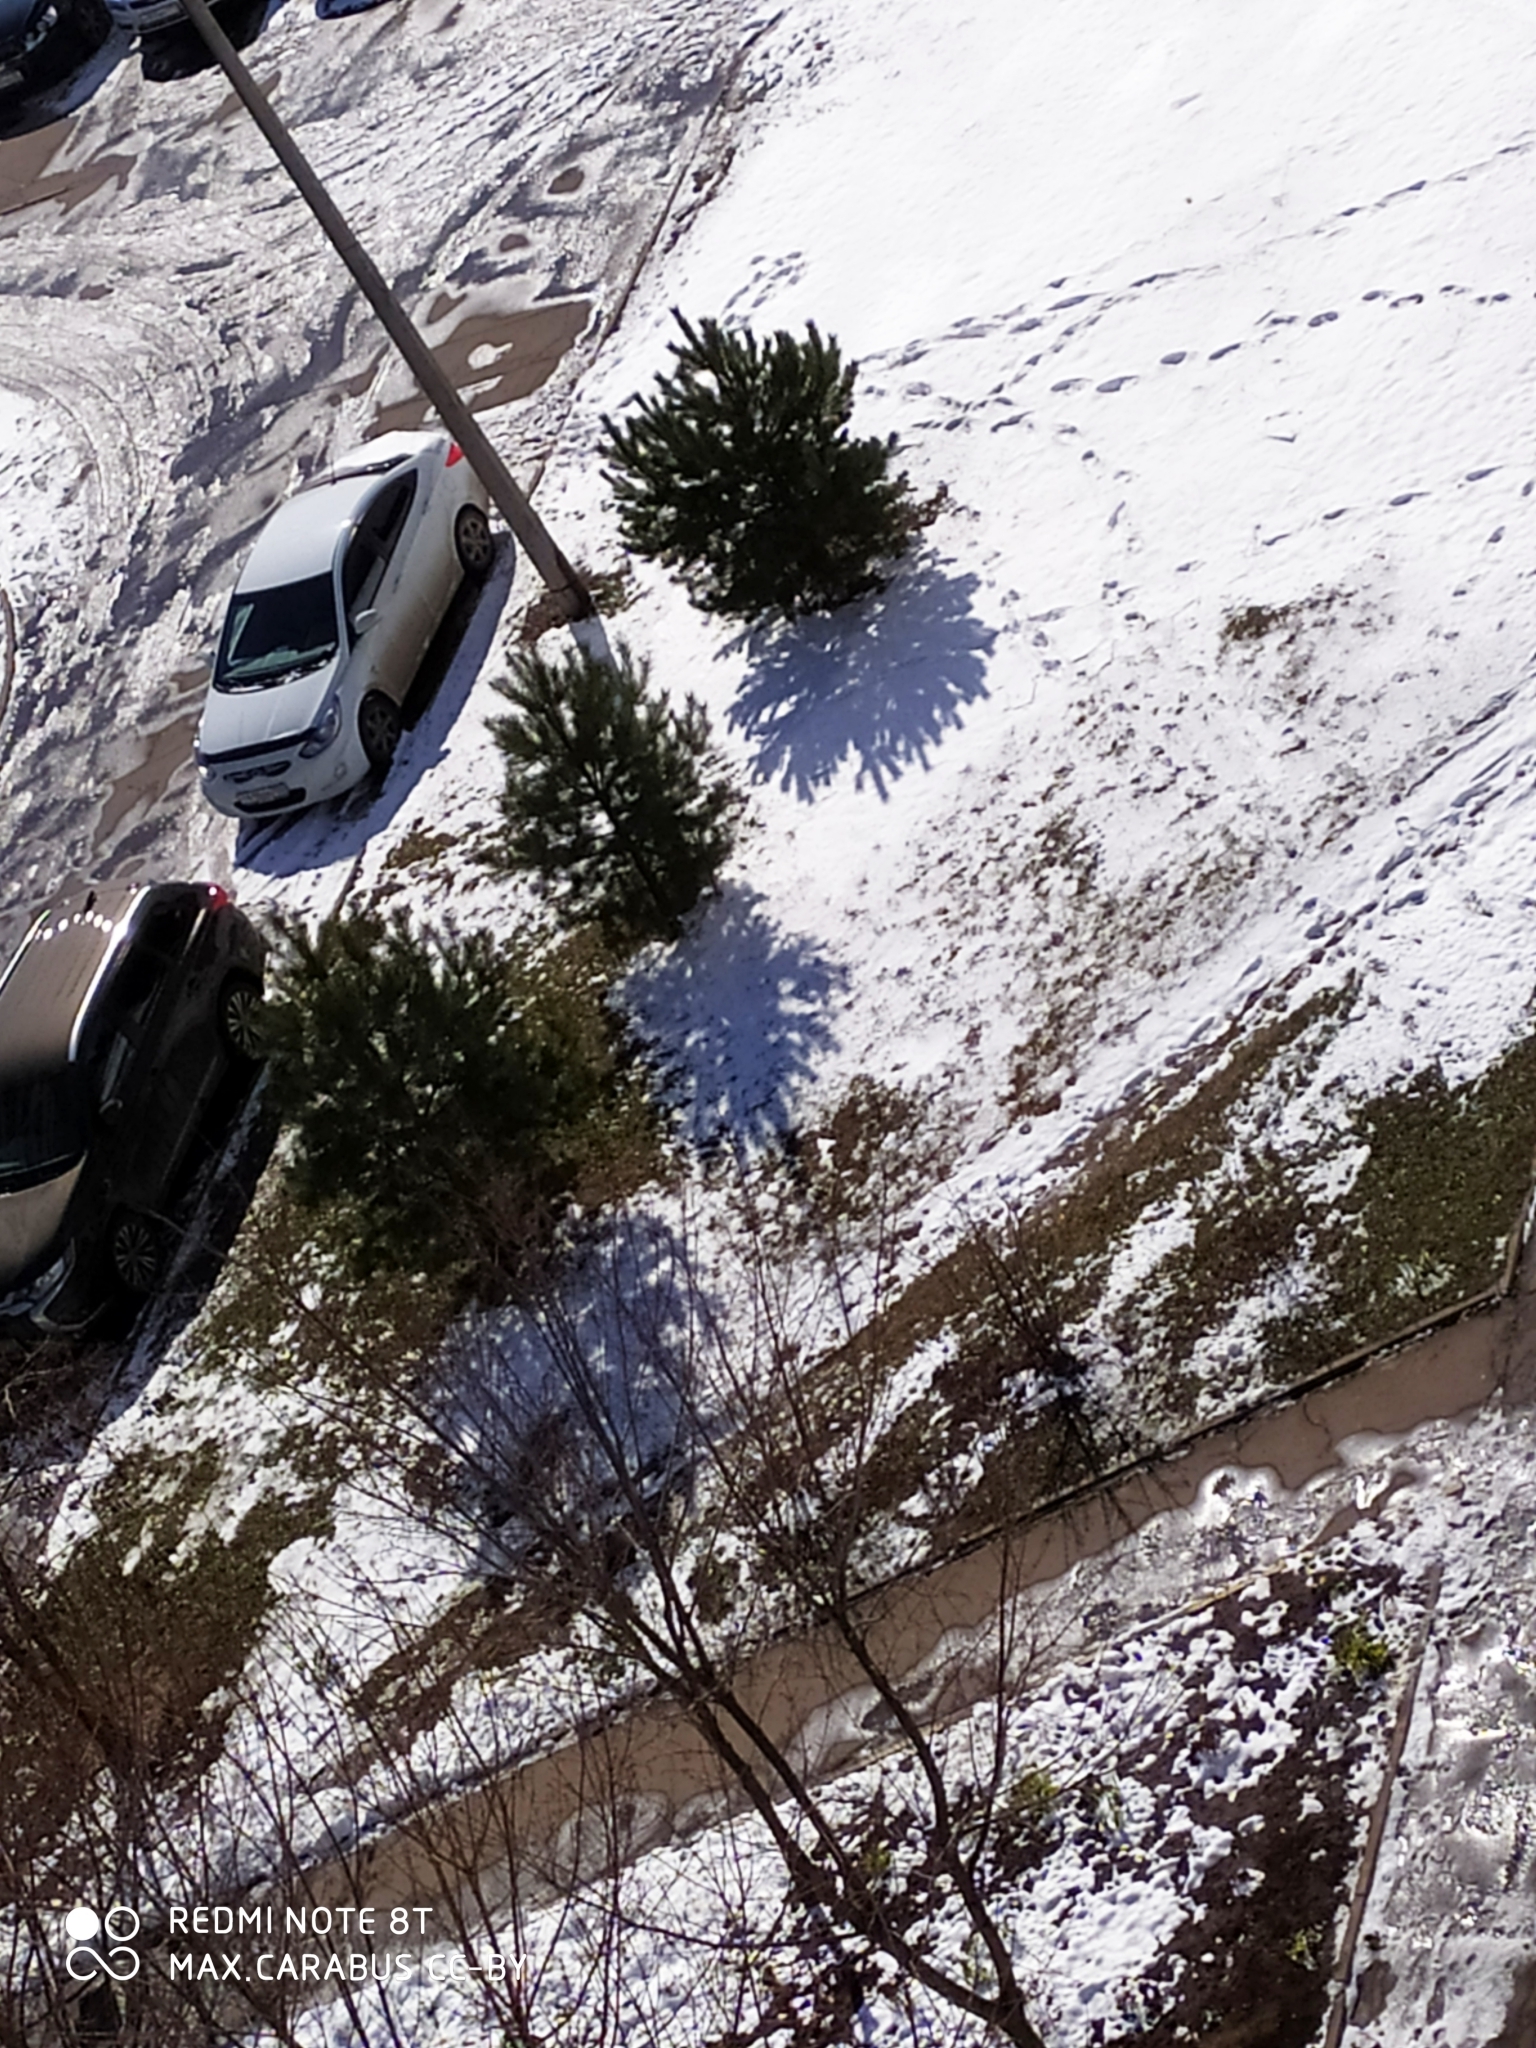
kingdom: Plantae
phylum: Tracheophyta
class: Pinopsida
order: Pinales
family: Pinaceae
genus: Pinus
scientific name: Pinus sylvestris
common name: Scots pine
